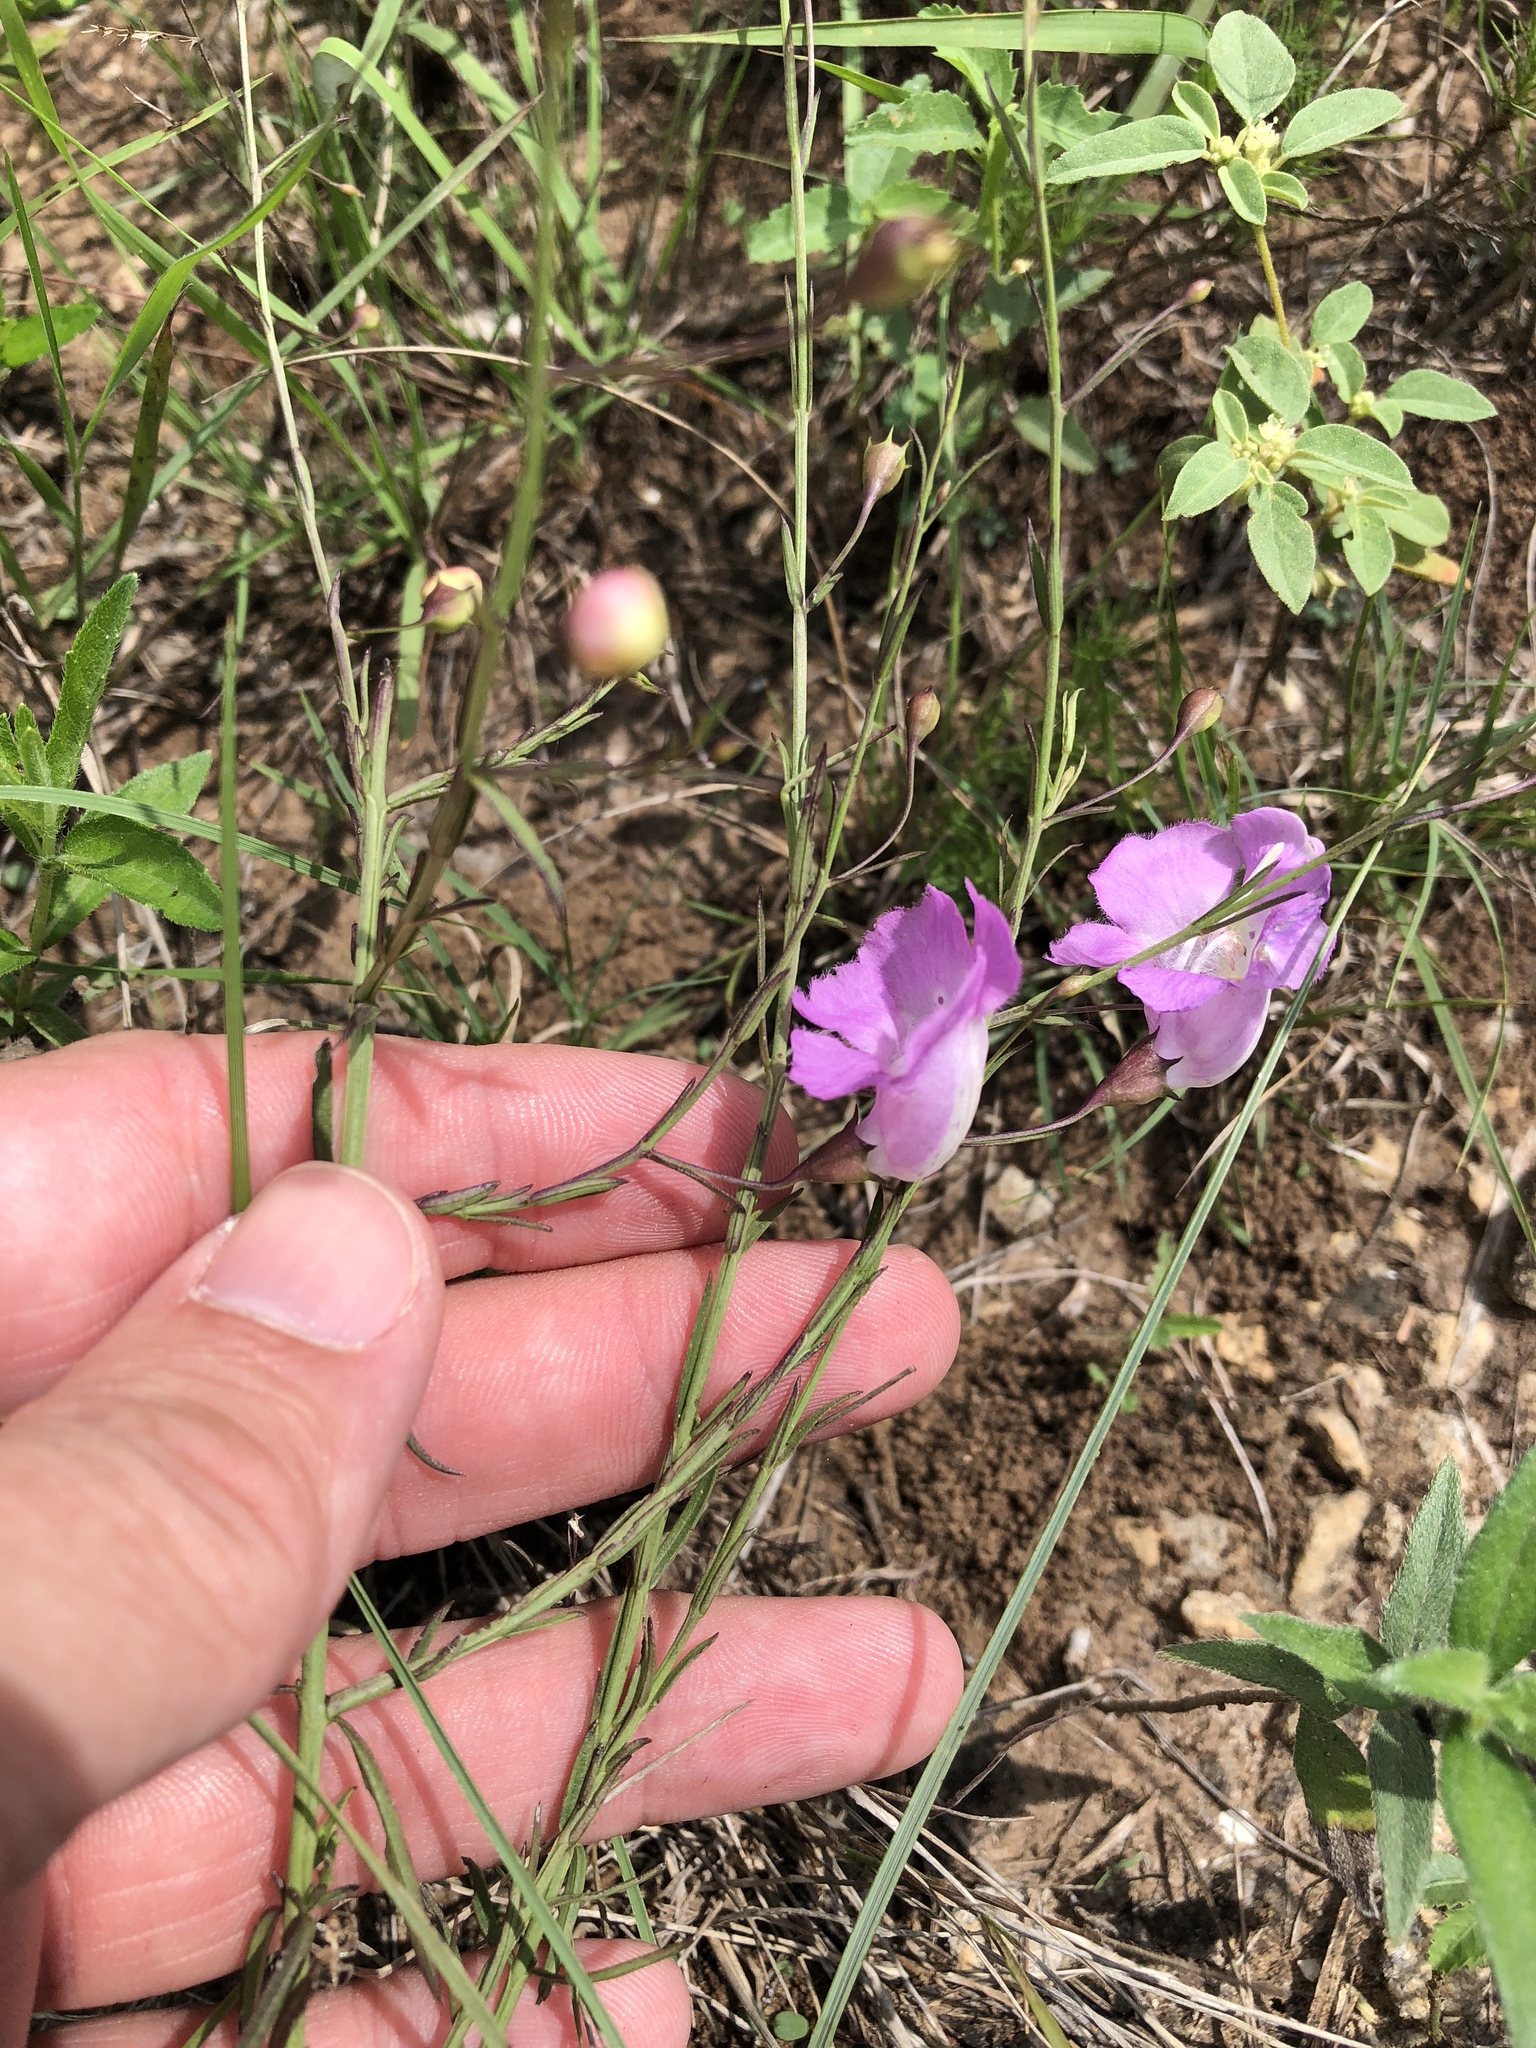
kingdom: Plantae
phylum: Tracheophyta
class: Magnoliopsida
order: Lamiales
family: Orobanchaceae
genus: Agalinis
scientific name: Agalinis strictifolia
